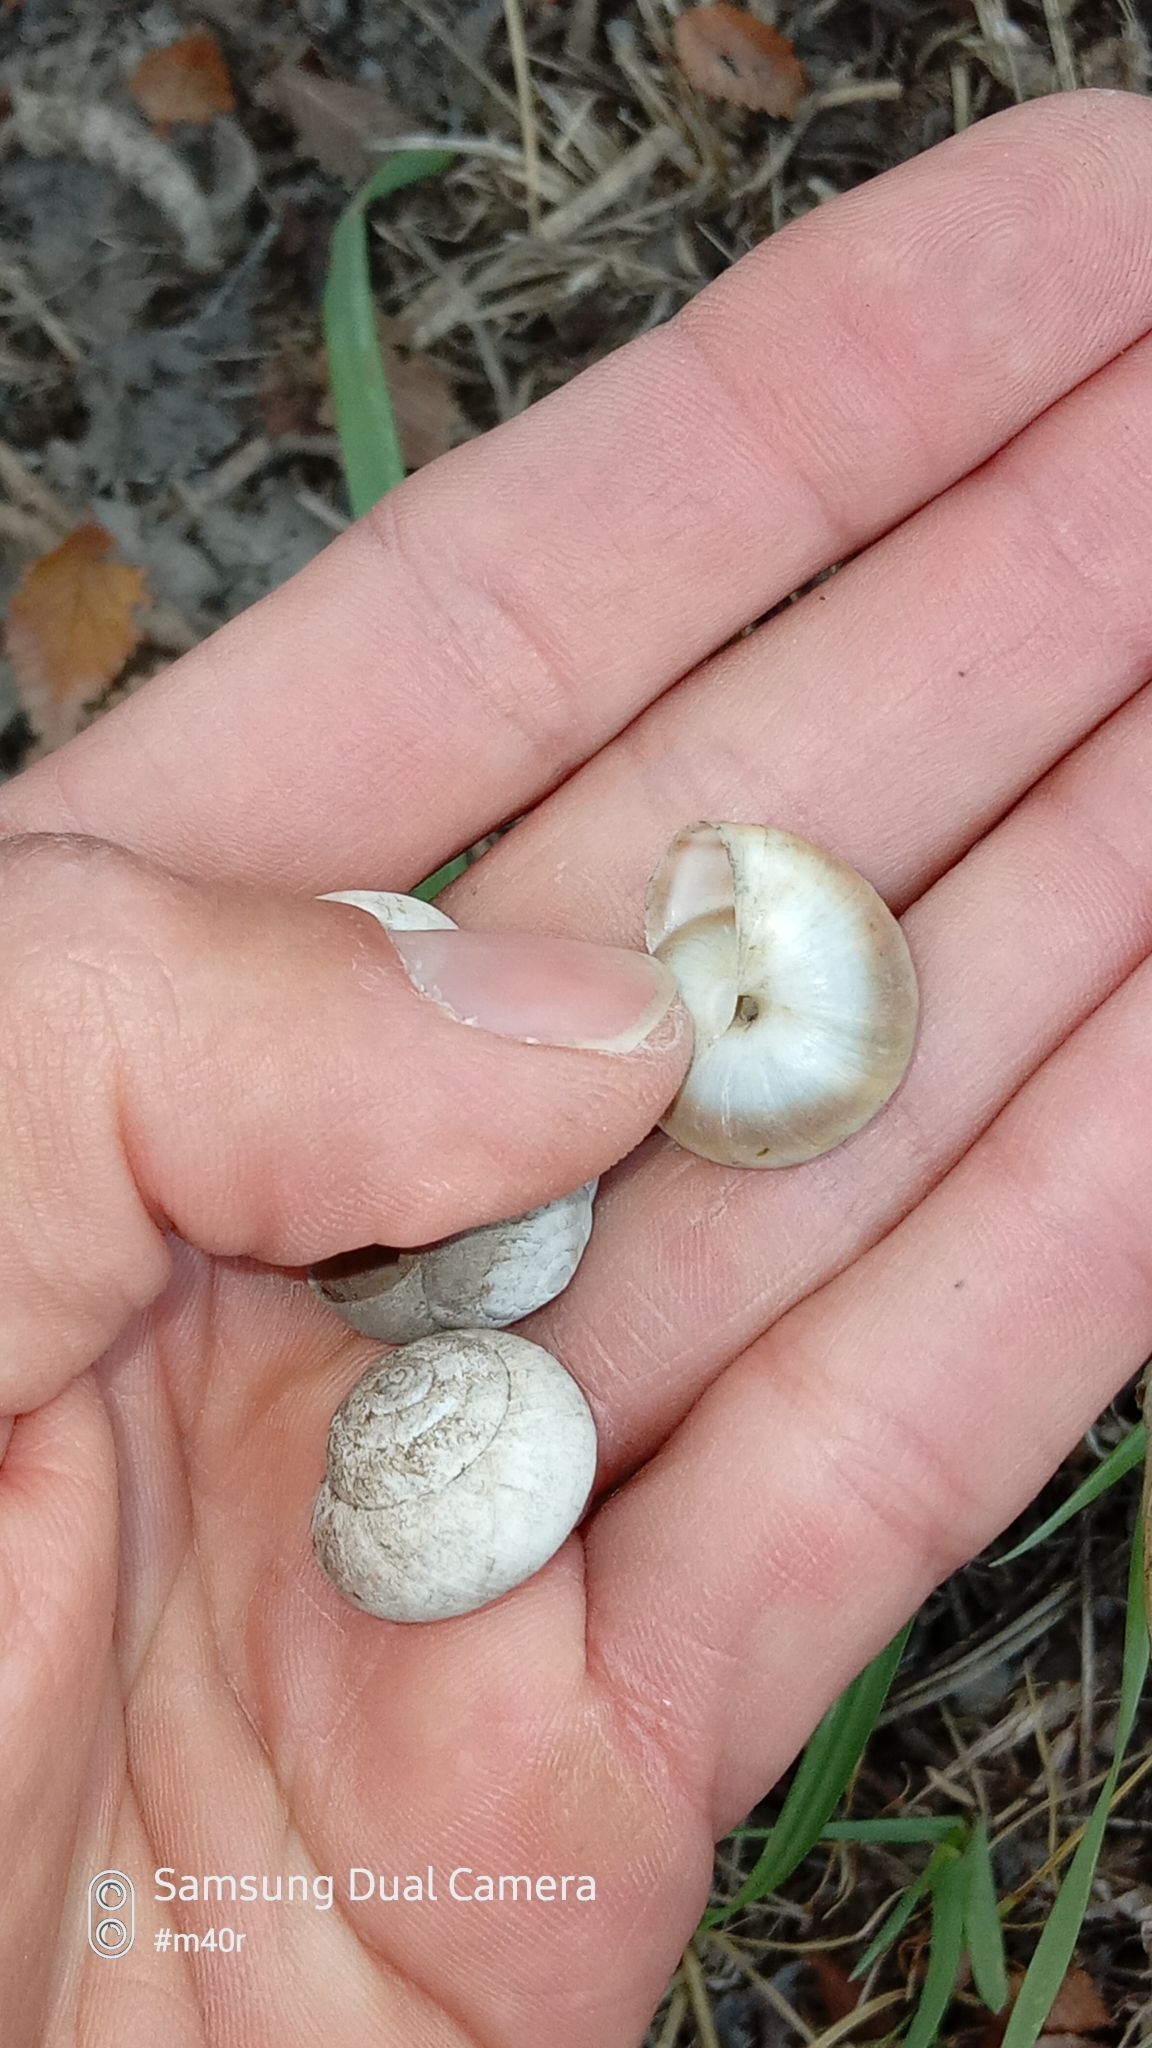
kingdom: Animalia
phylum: Mollusca
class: Gastropoda
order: Stylommatophora
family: Camaenidae
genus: Fruticicola
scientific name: Fruticicola lantzi
